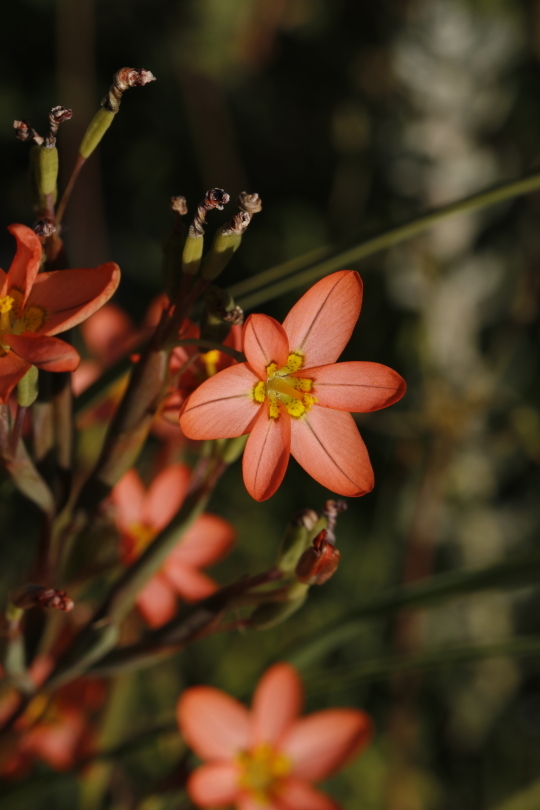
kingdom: Plantae
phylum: Tracheophyta
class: Liliopsida
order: Asparagales
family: Iridaceae
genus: Moraea
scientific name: Moraea miniata
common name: Two-leaf cape-tulip
